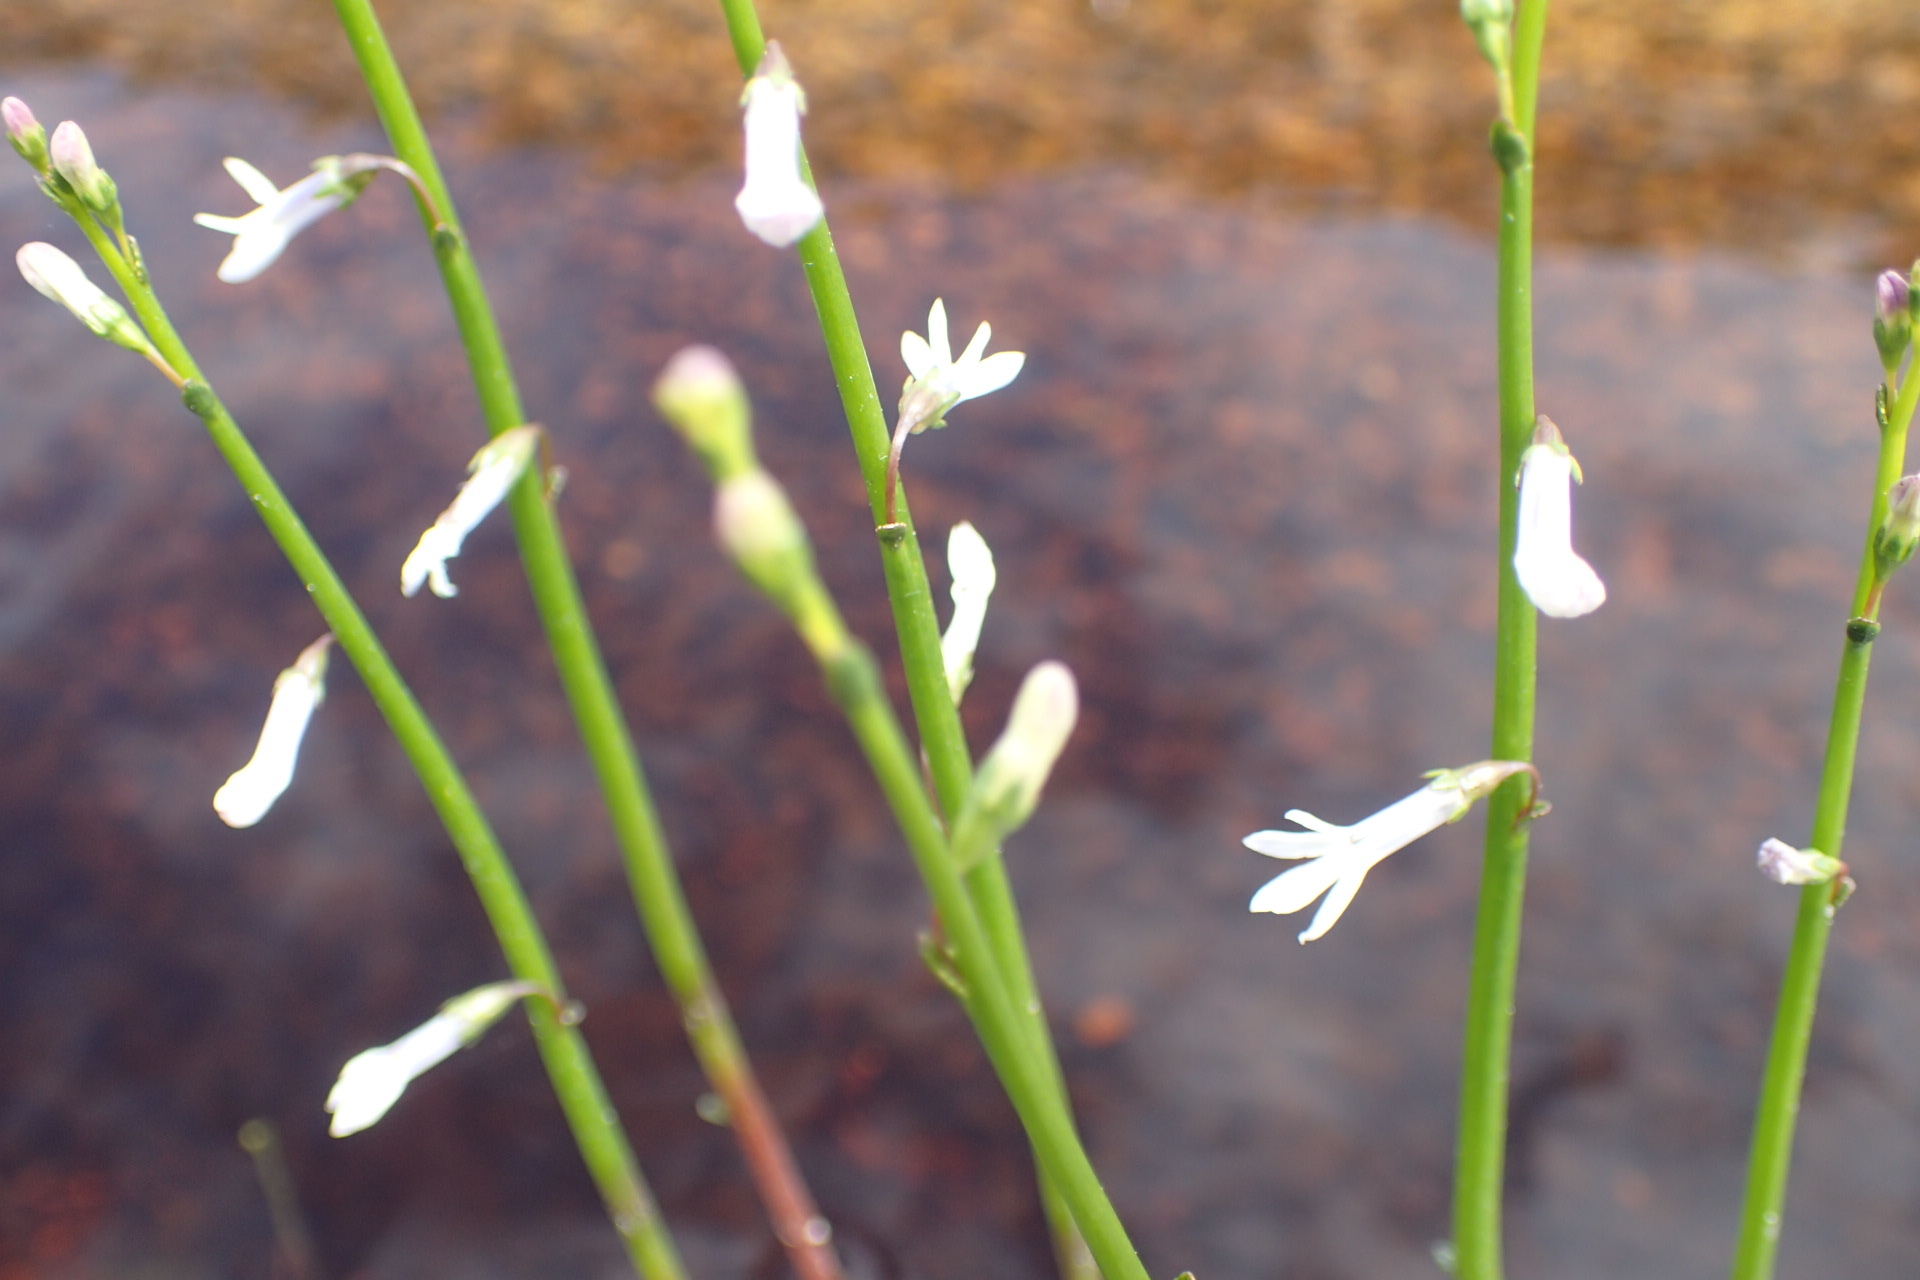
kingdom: Plantae
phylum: Tracheophyta
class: Magnoliopsida
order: Asterales
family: Campanulaceae
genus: Lobelia
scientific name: Lobelia dortmanna
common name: Water lobelia
